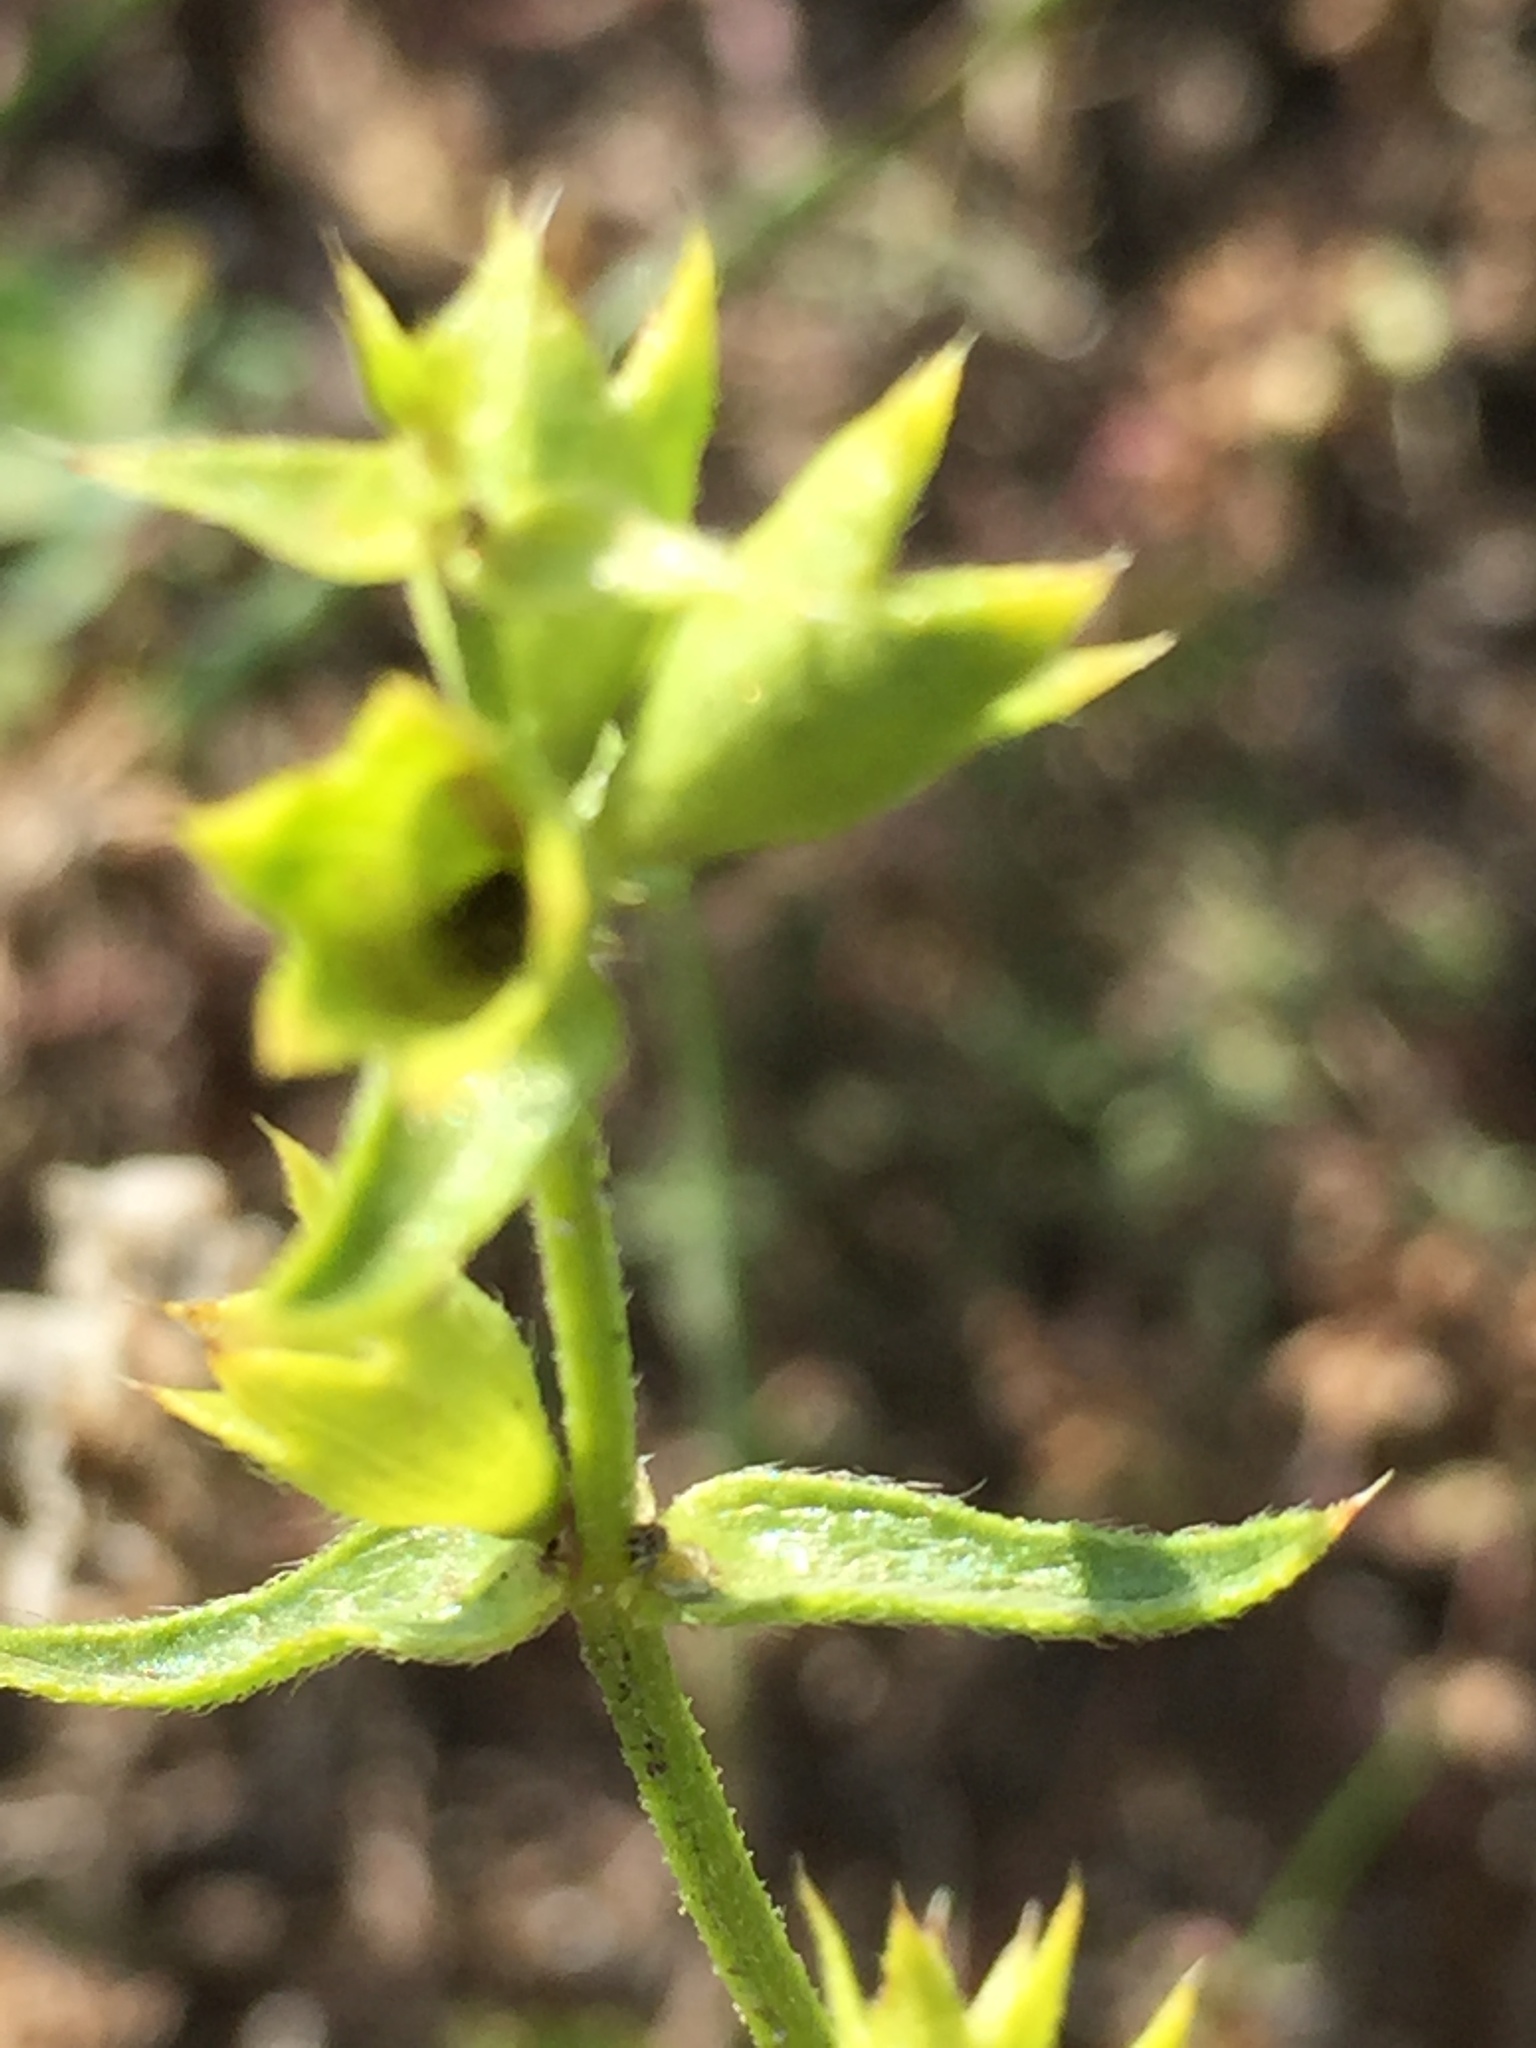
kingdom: Plantae
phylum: Tracheophyta
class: Magnoliopsida
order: Lamiales
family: Lamiaceae
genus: Stachys
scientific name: Stachys recta
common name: Perennial yellow-woundwort
